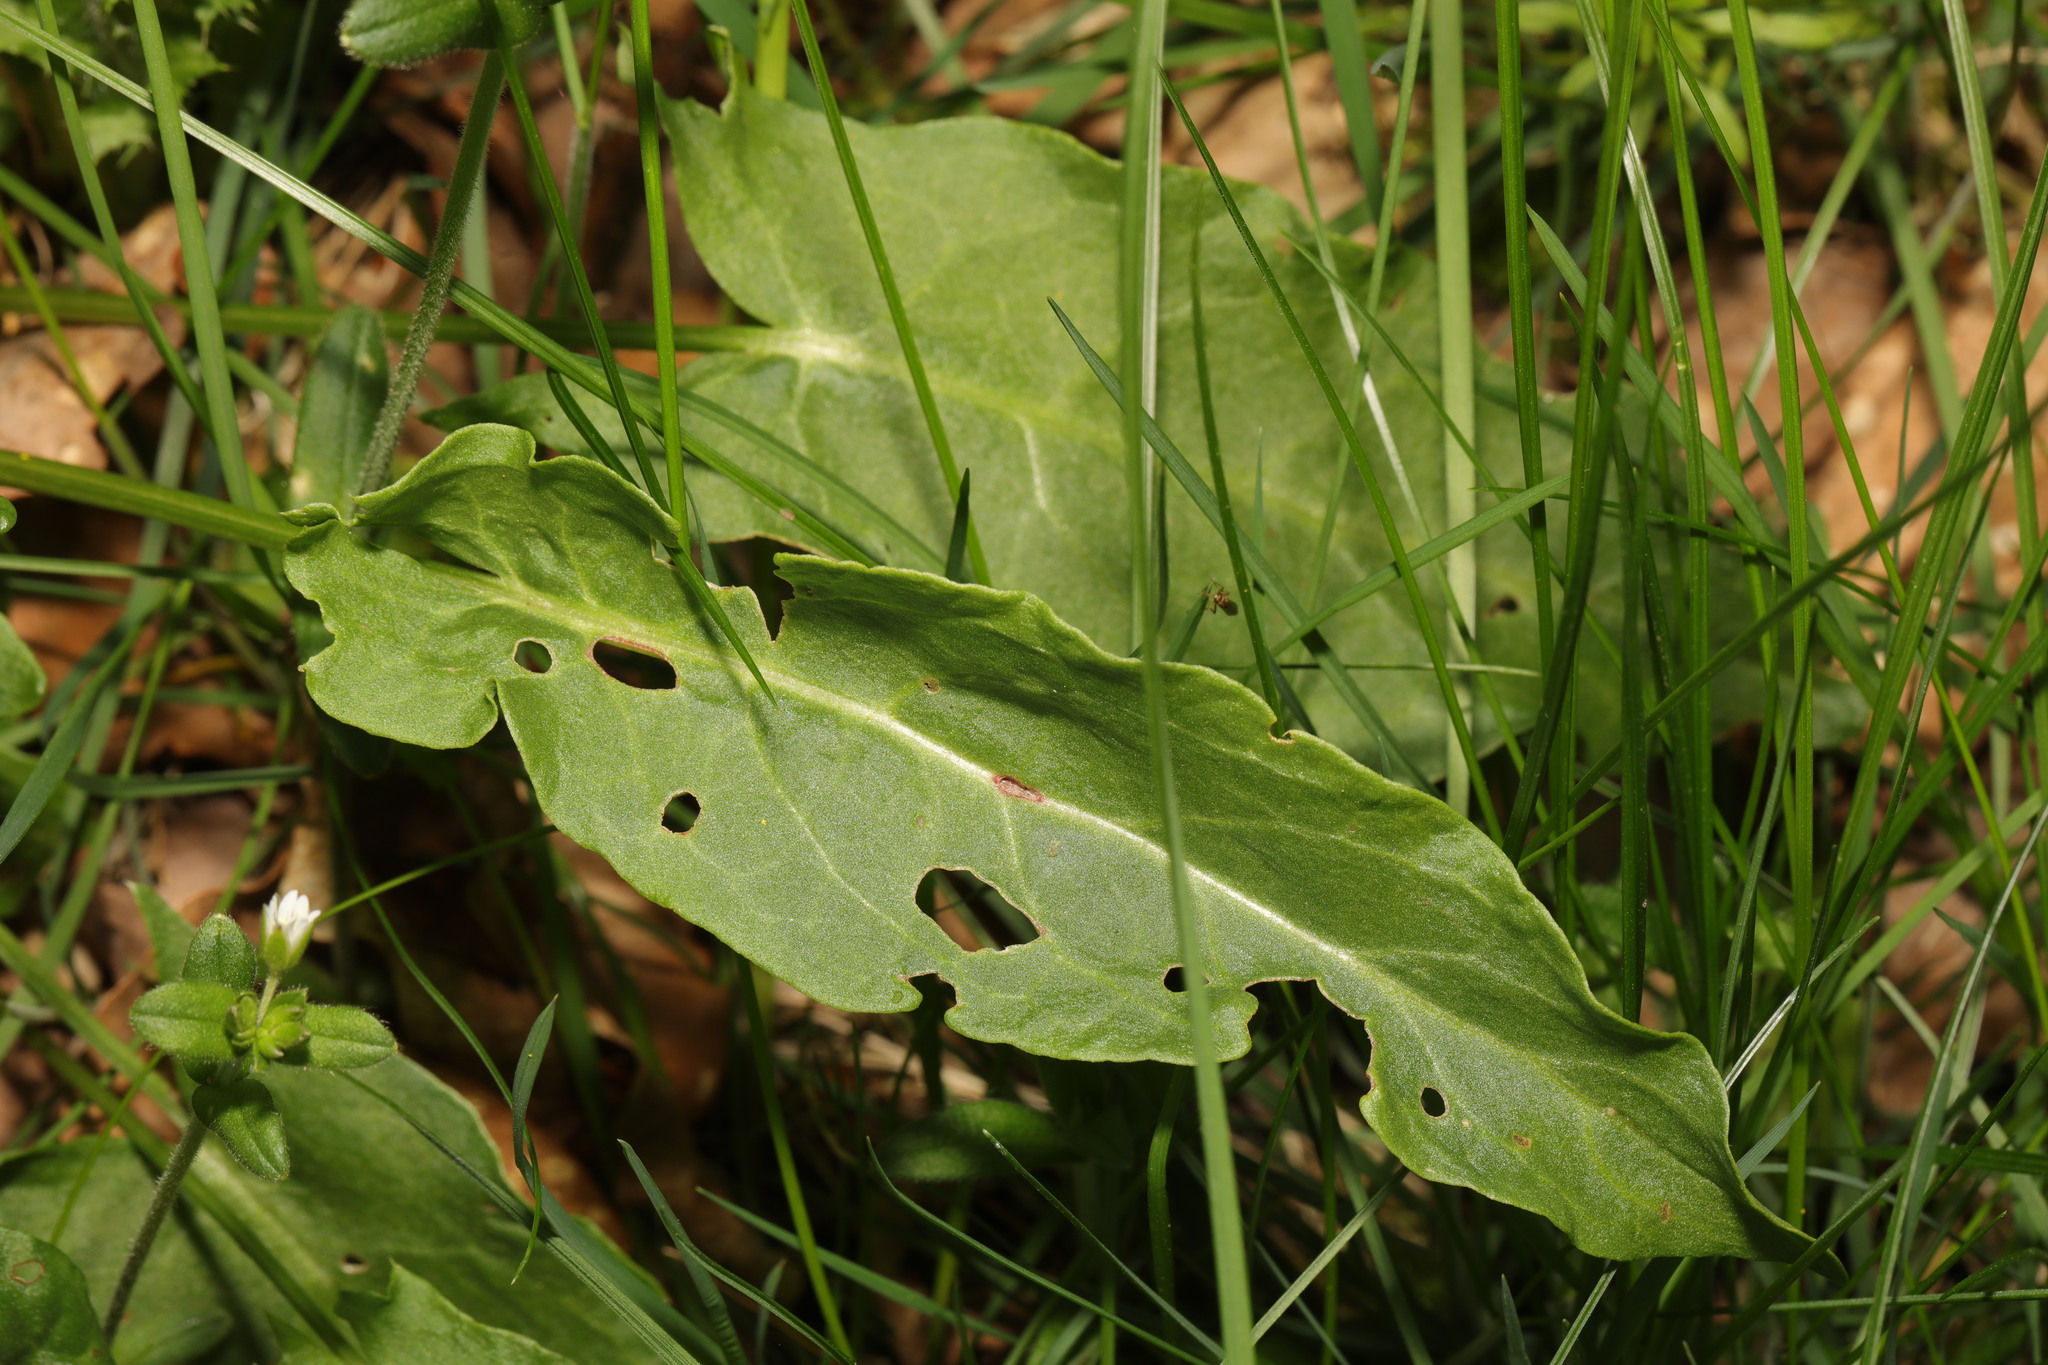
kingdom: Plantae
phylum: Tracheophyta
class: Magnoliopsida
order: Caryophyllales
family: Polygonaceae
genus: Rumex
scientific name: Rumex acetosa
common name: Garden sorrel
